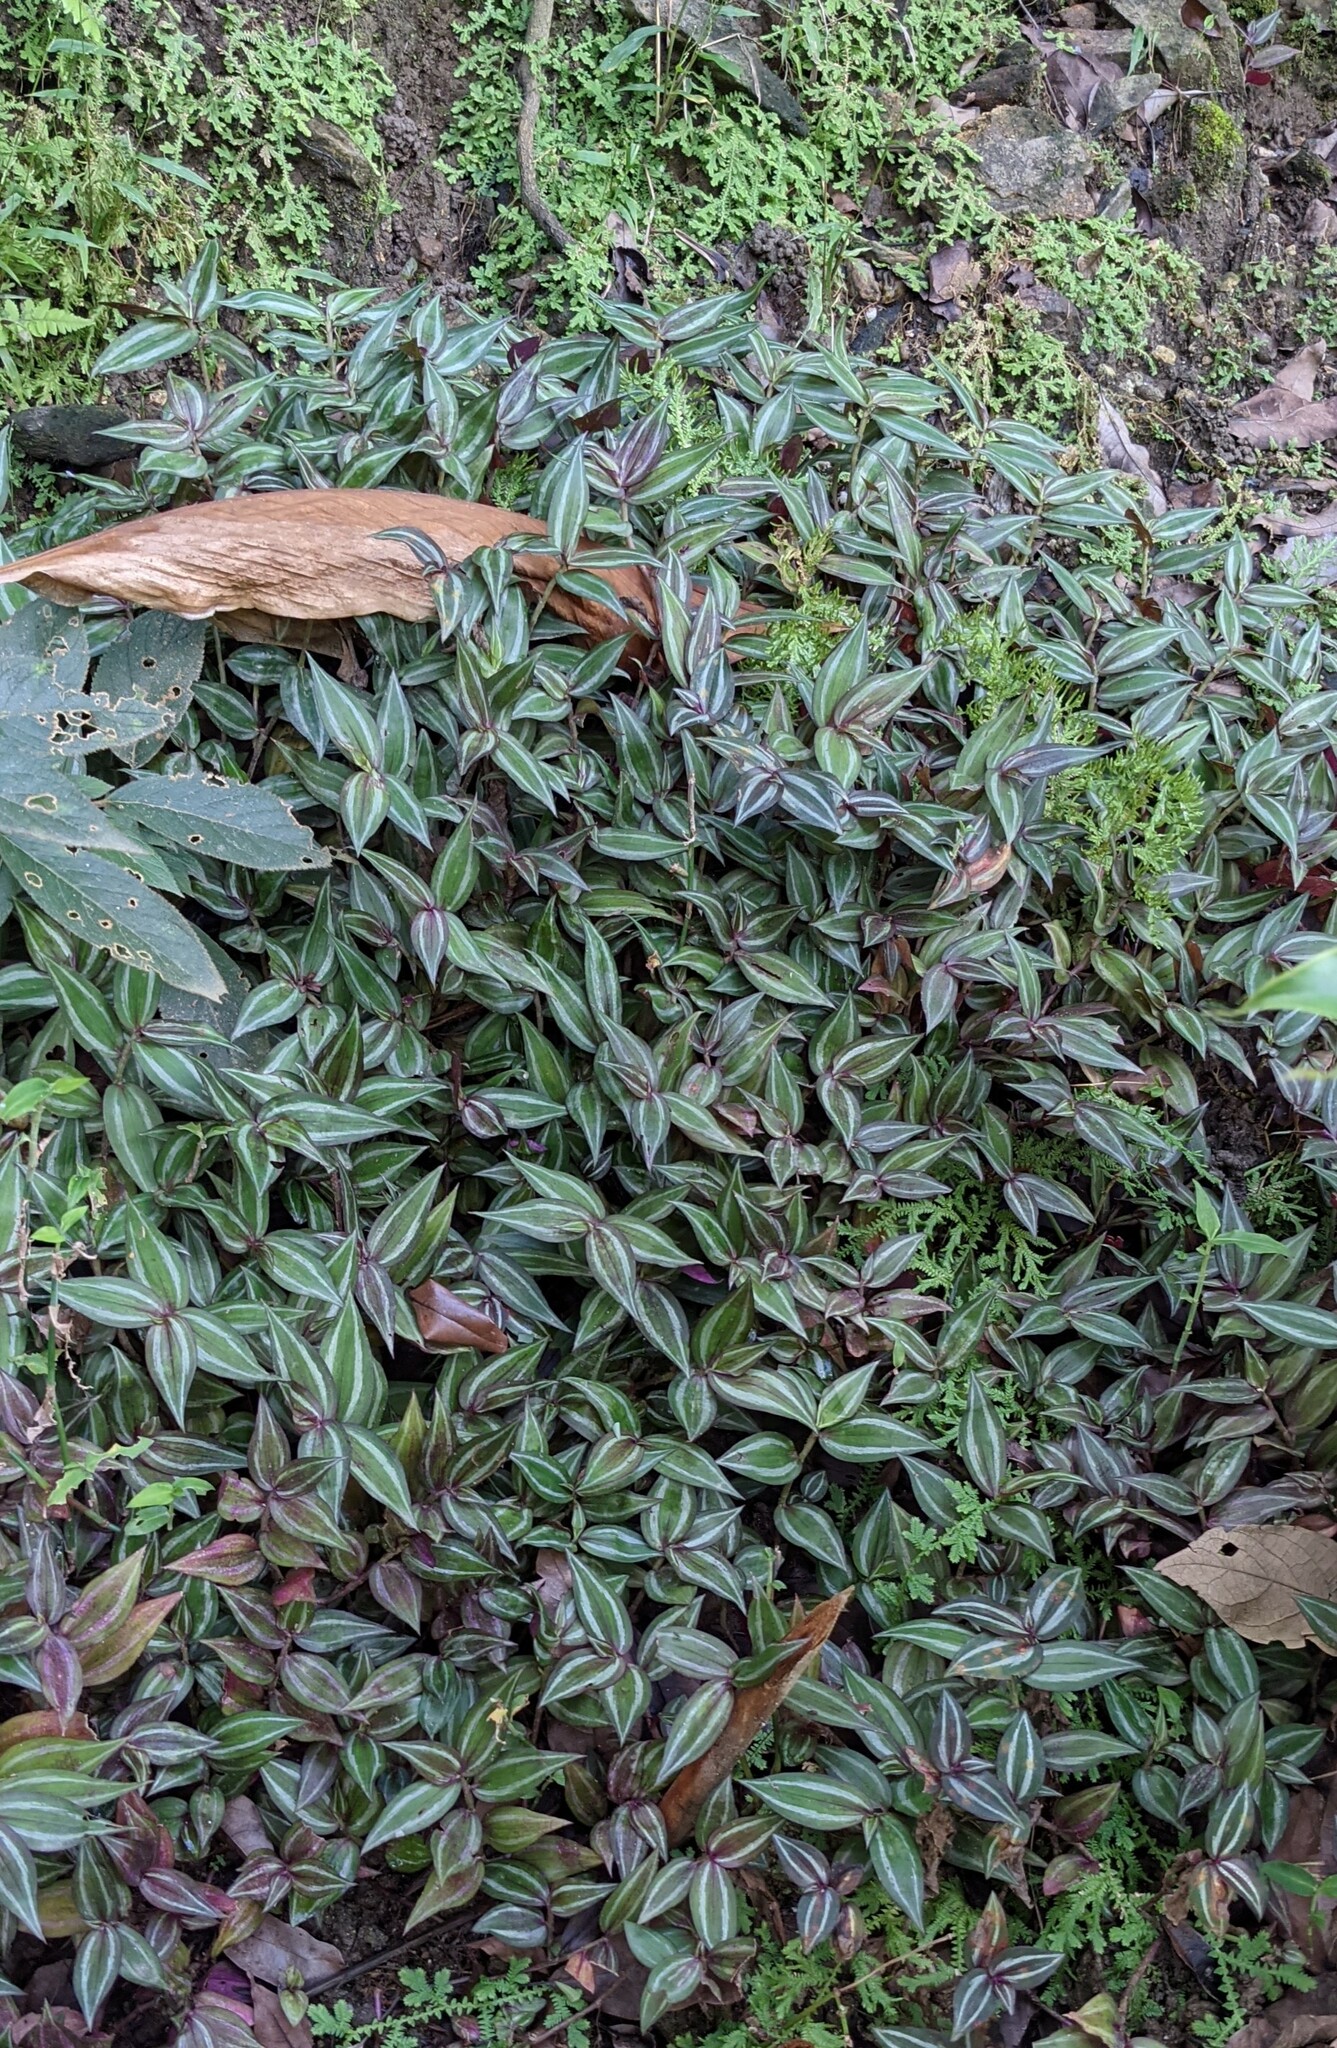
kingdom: Plantae
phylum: Tracheophyta
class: Liliopsida
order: Commelinales
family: Commelinaceae
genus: Tradescantia
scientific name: Tradescantia zebrina
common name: Inchplant
